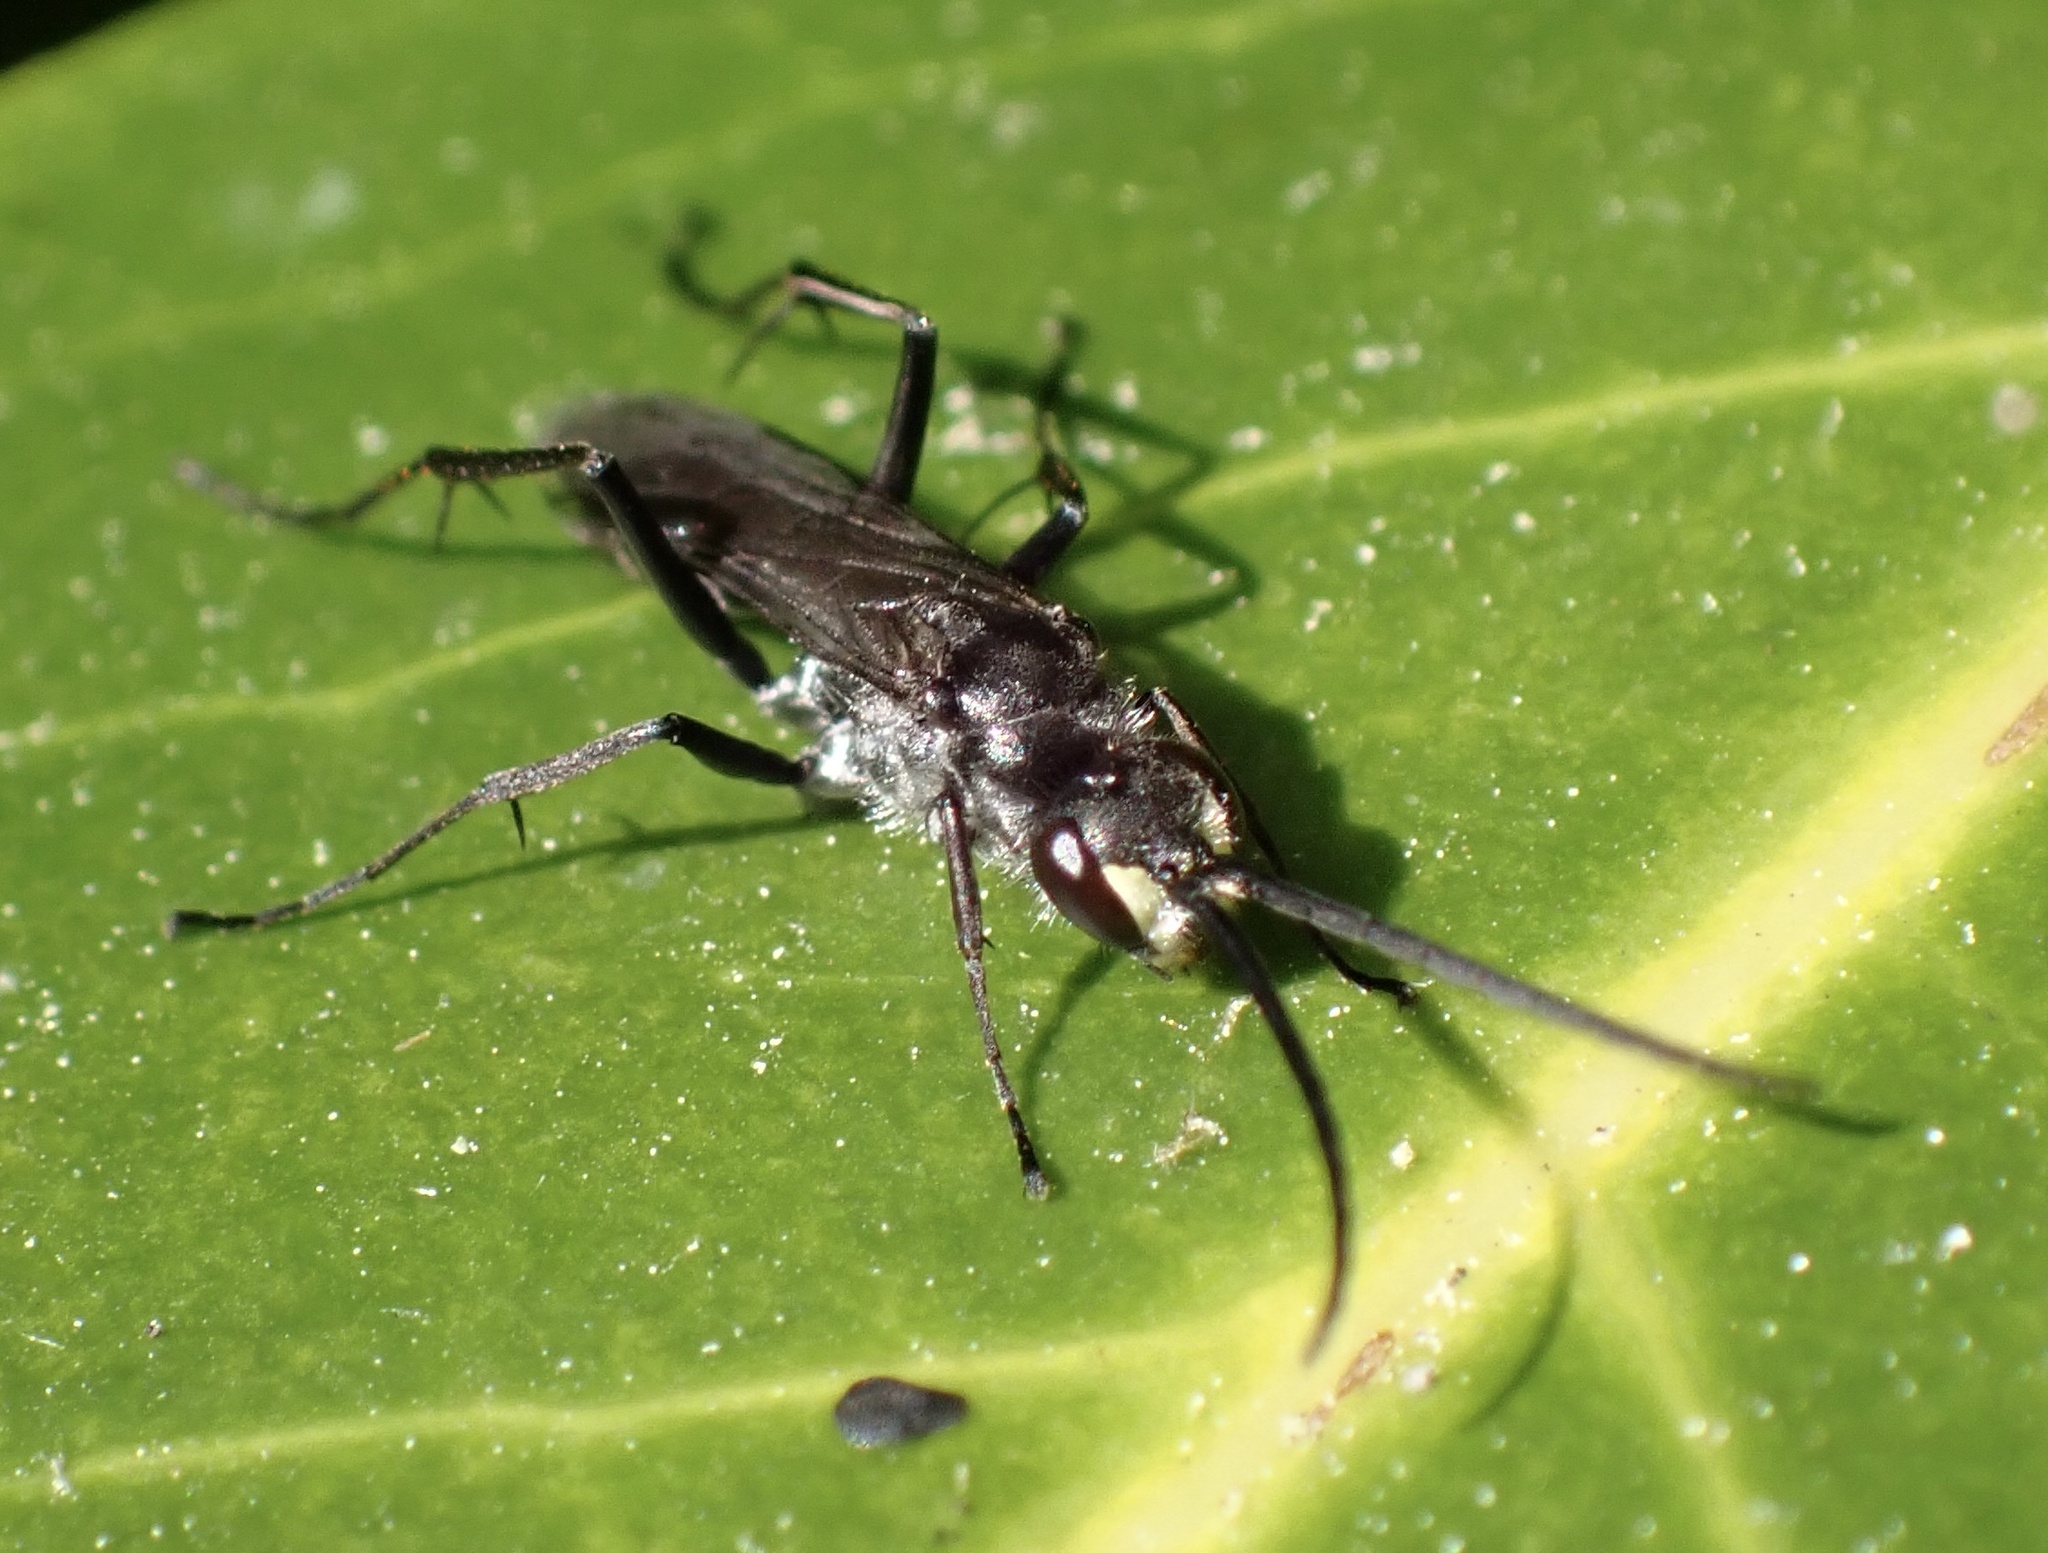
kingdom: Animalia
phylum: Arthropoda
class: Insecta
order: Hymenoptera
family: Pompilidae
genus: Auplopus
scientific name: Auplopus carbonarius
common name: Spider wasp
